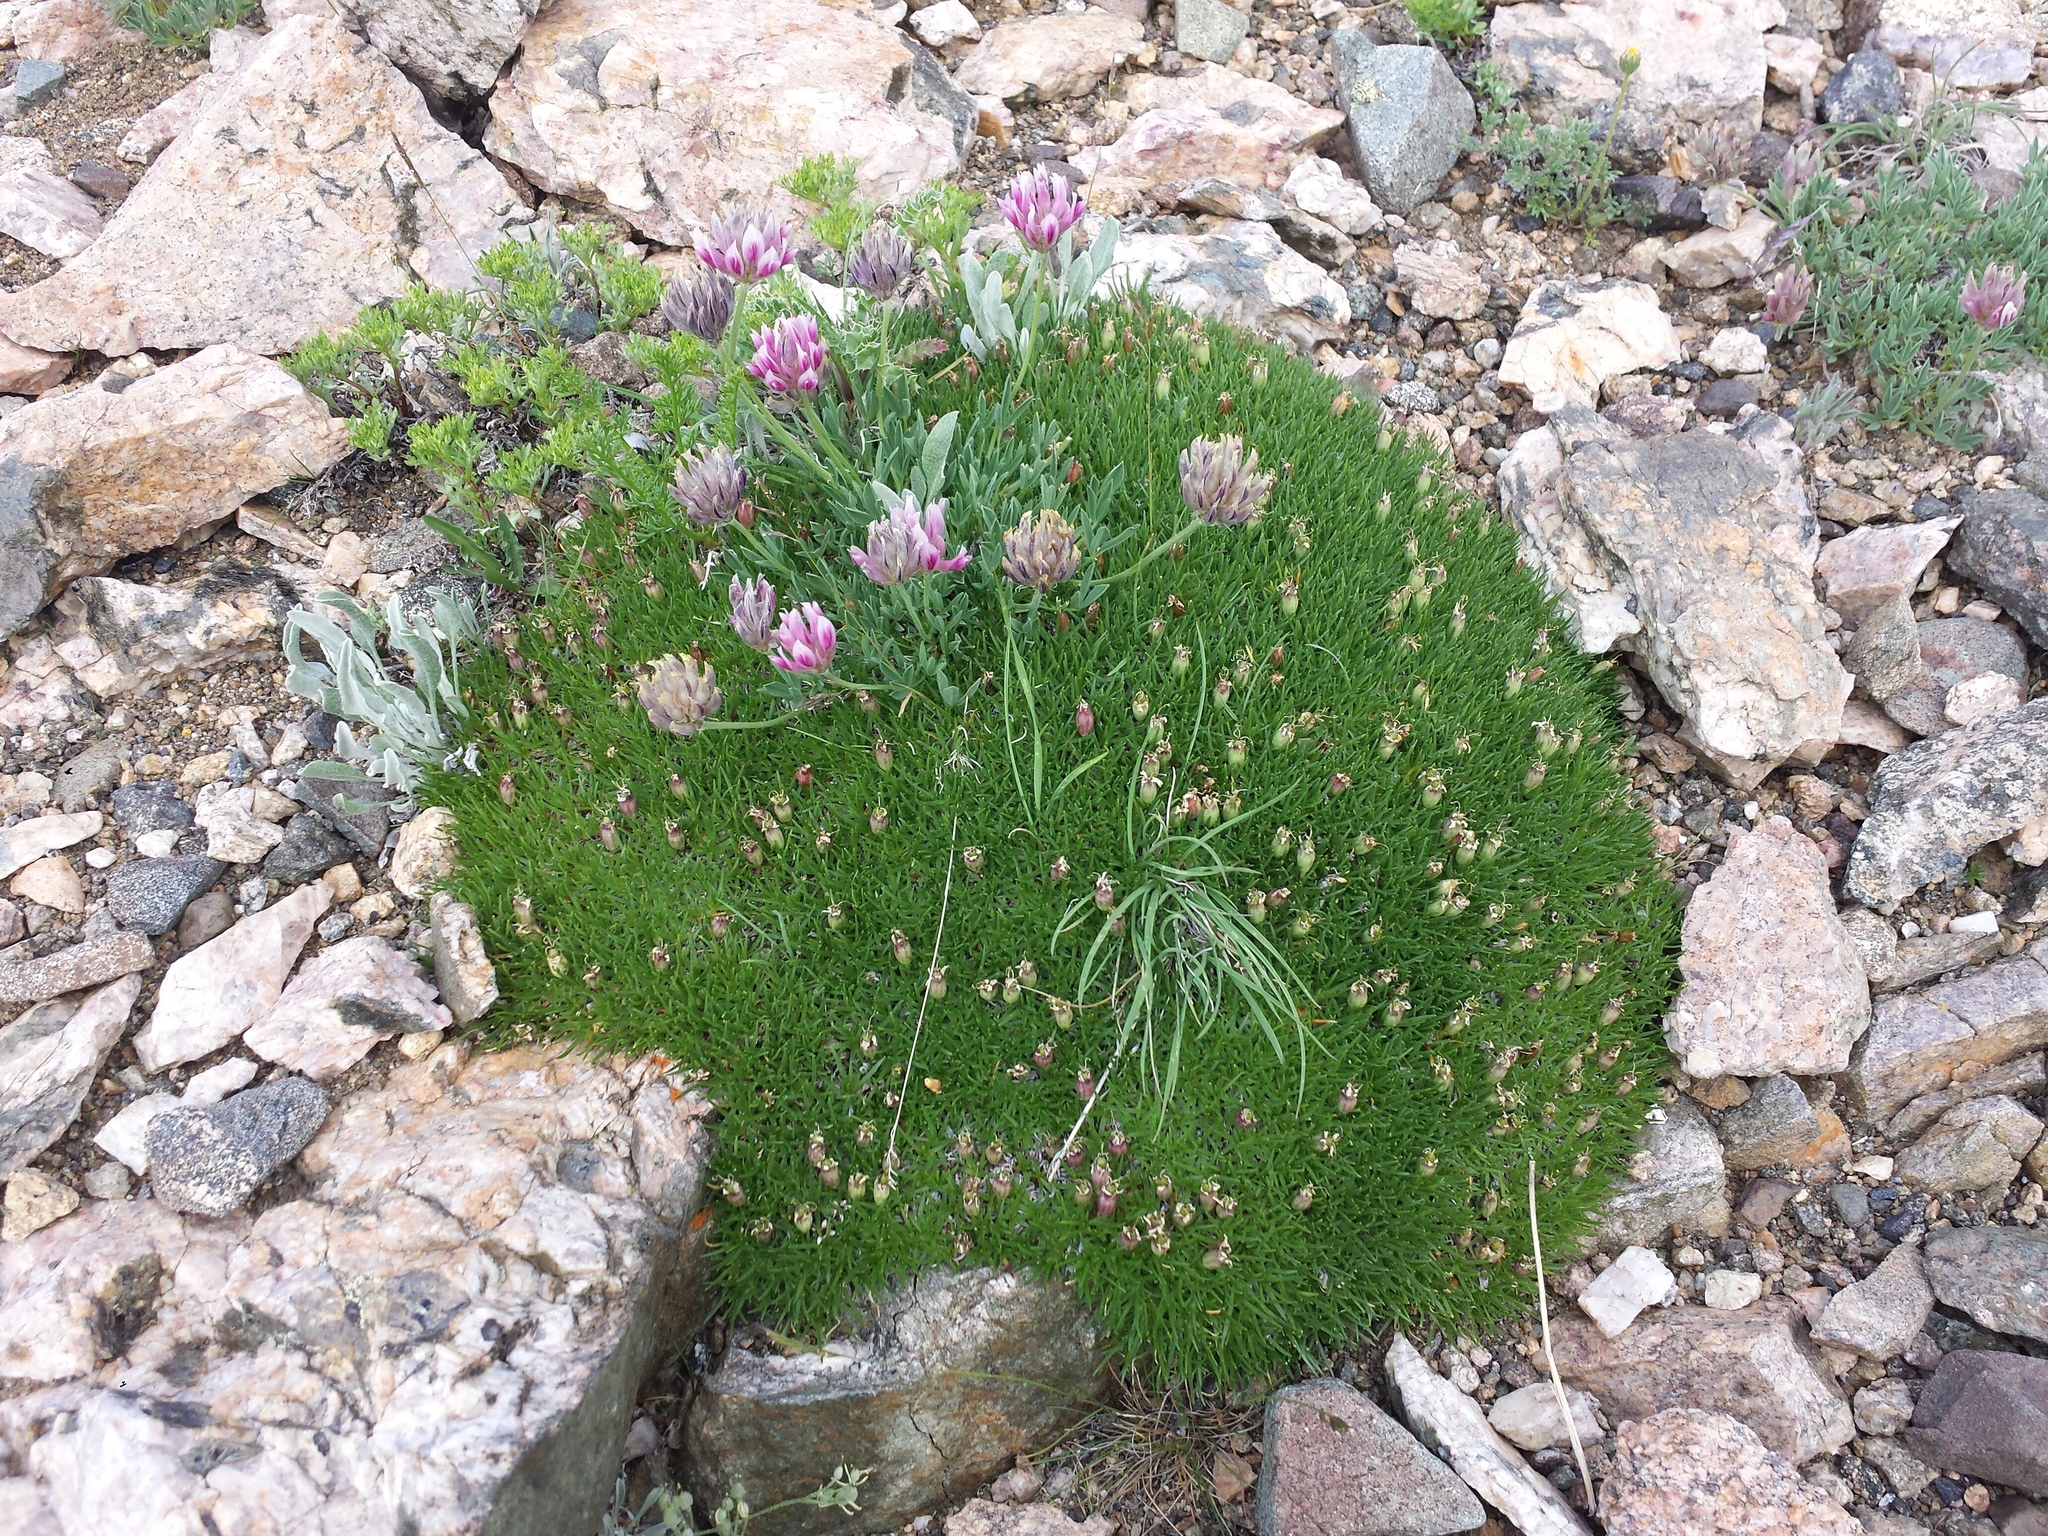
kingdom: Plantae
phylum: Tracheophyta
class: Magnoliopsida
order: Caryophyllales
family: Caryophyllaceae
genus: Silene
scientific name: Silene acaulis
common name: Moss campion
